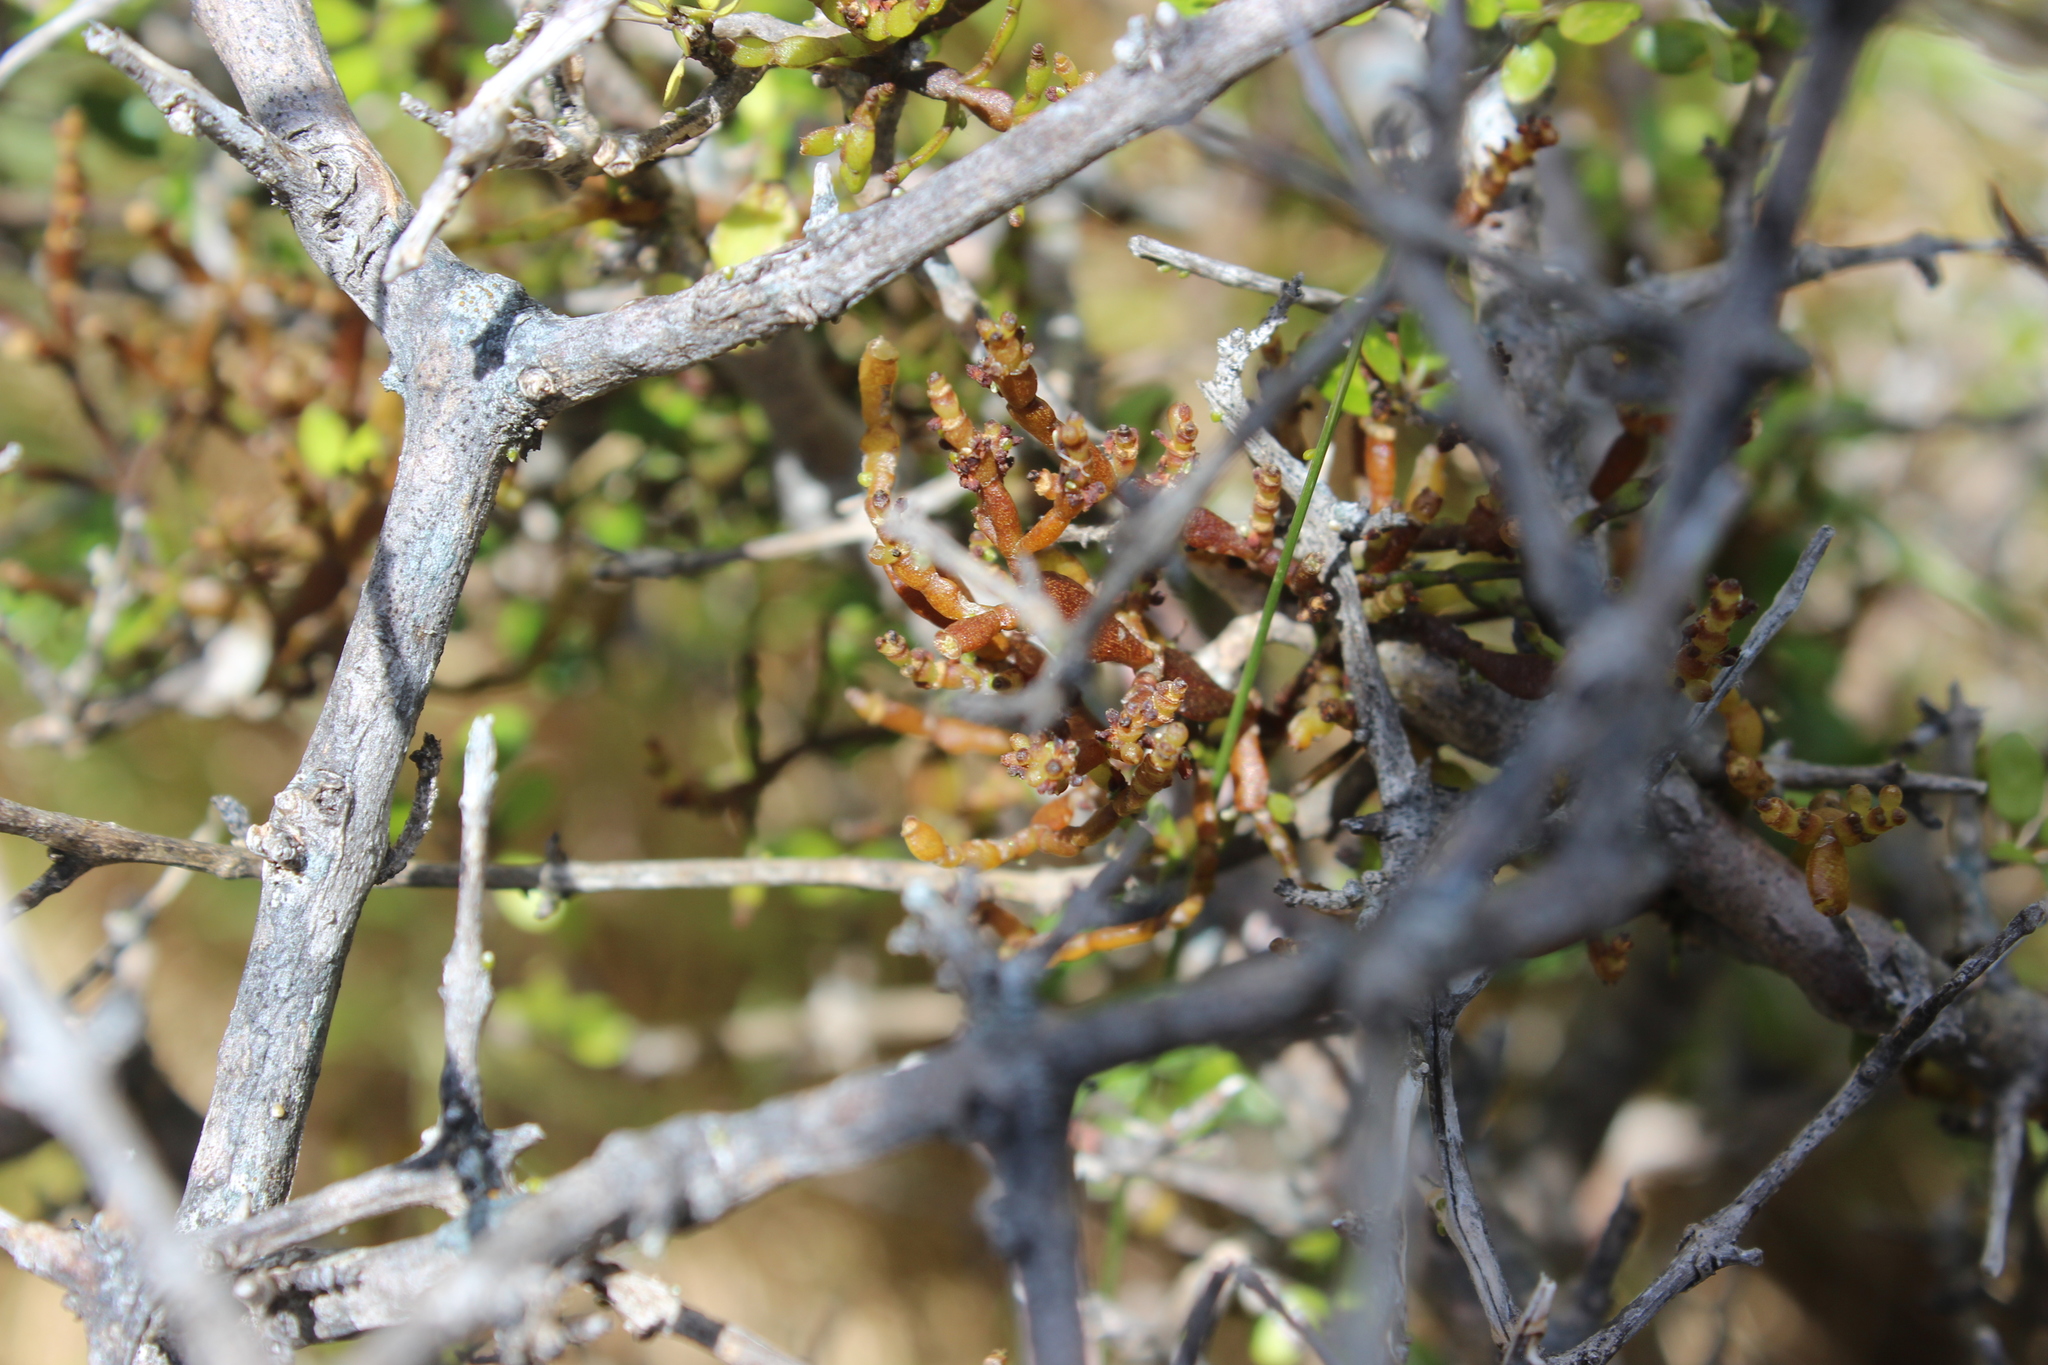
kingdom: Plantae
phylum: Tracheophyta
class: Magnoliopsida
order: Santalales
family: Viscaceae
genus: Korthalsella
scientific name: Korthalsella clavata
